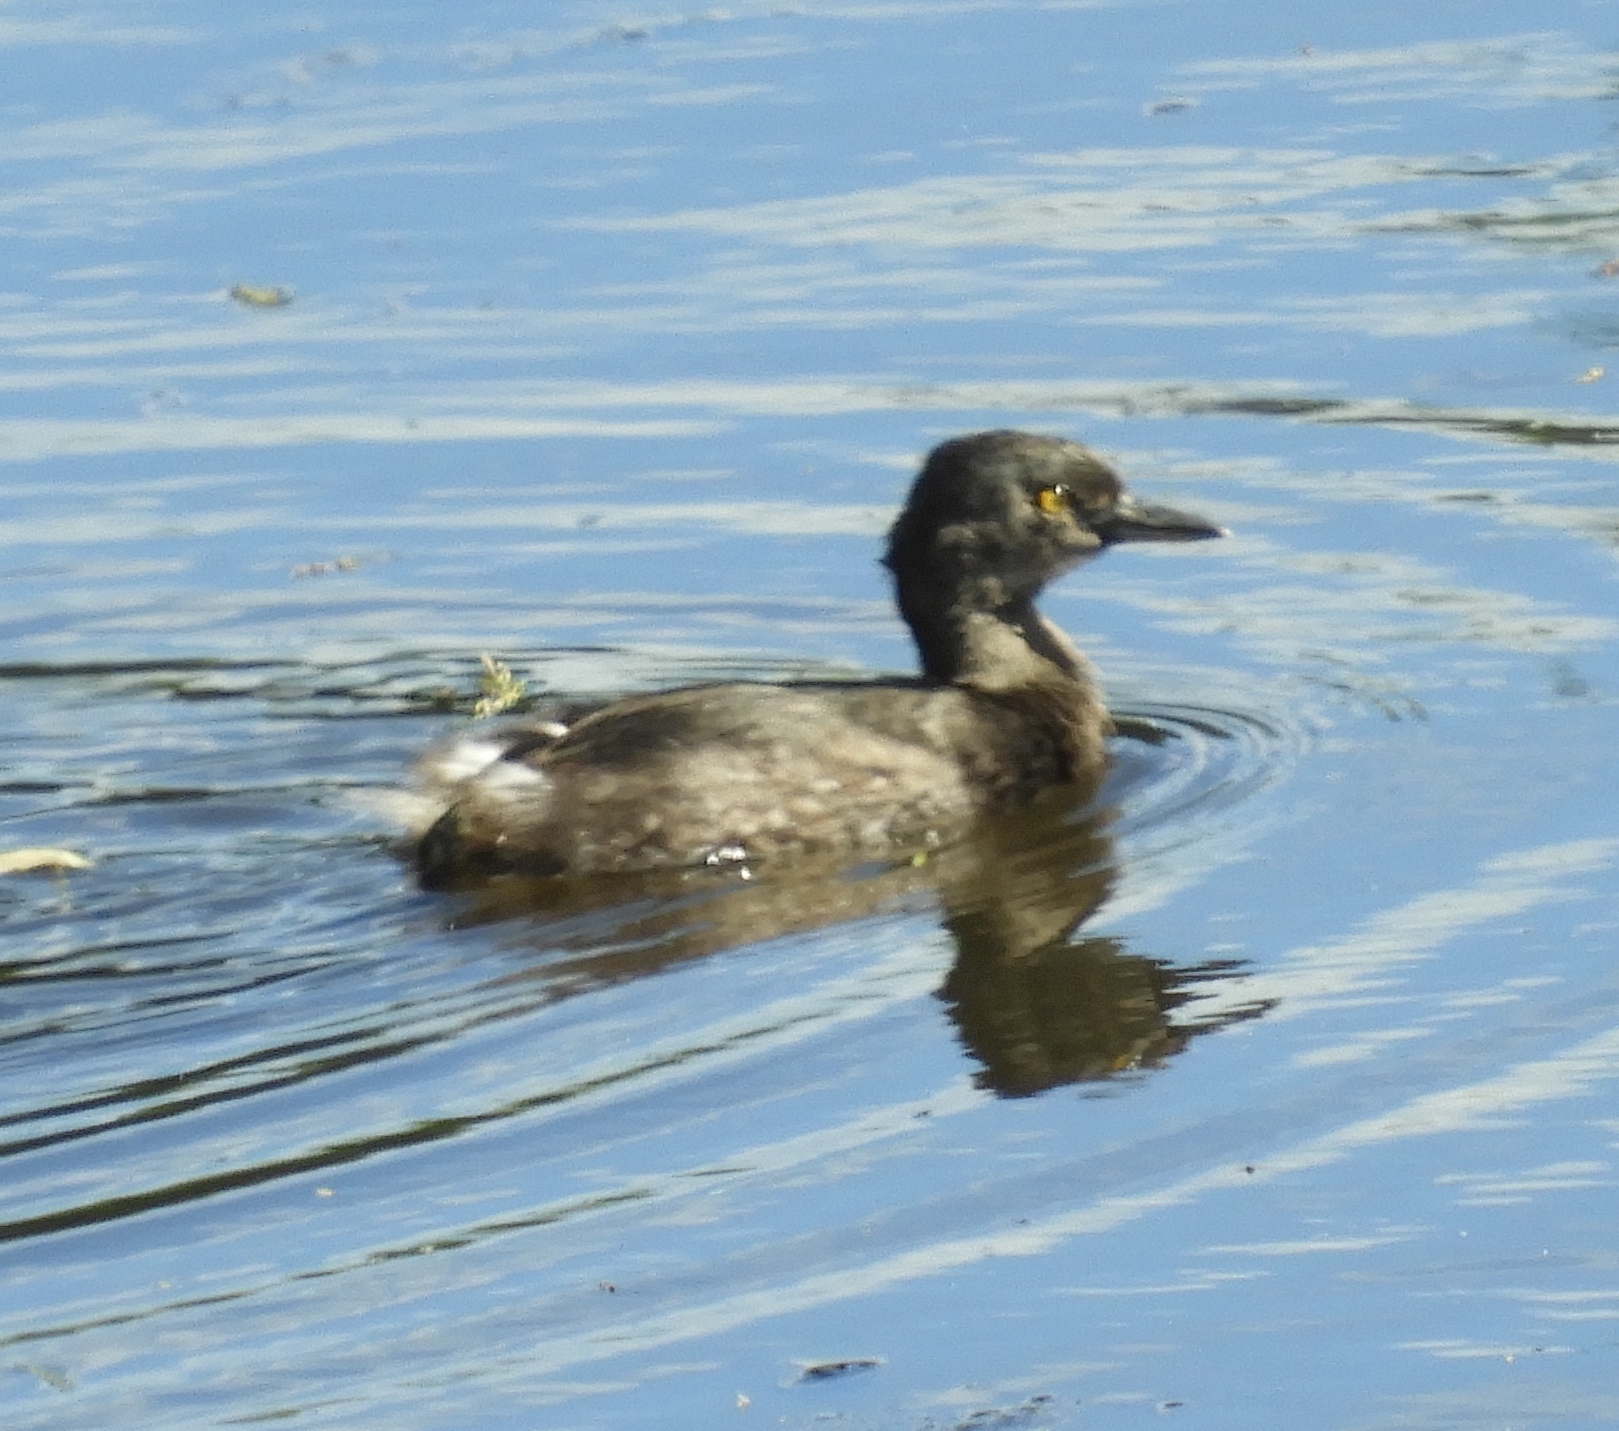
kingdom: Animalia
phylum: Chordata
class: Aves
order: Podicipediformes
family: Podicipedidae
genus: Tachybaptus
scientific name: Tachybaptus dominicus
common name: Least grebe
